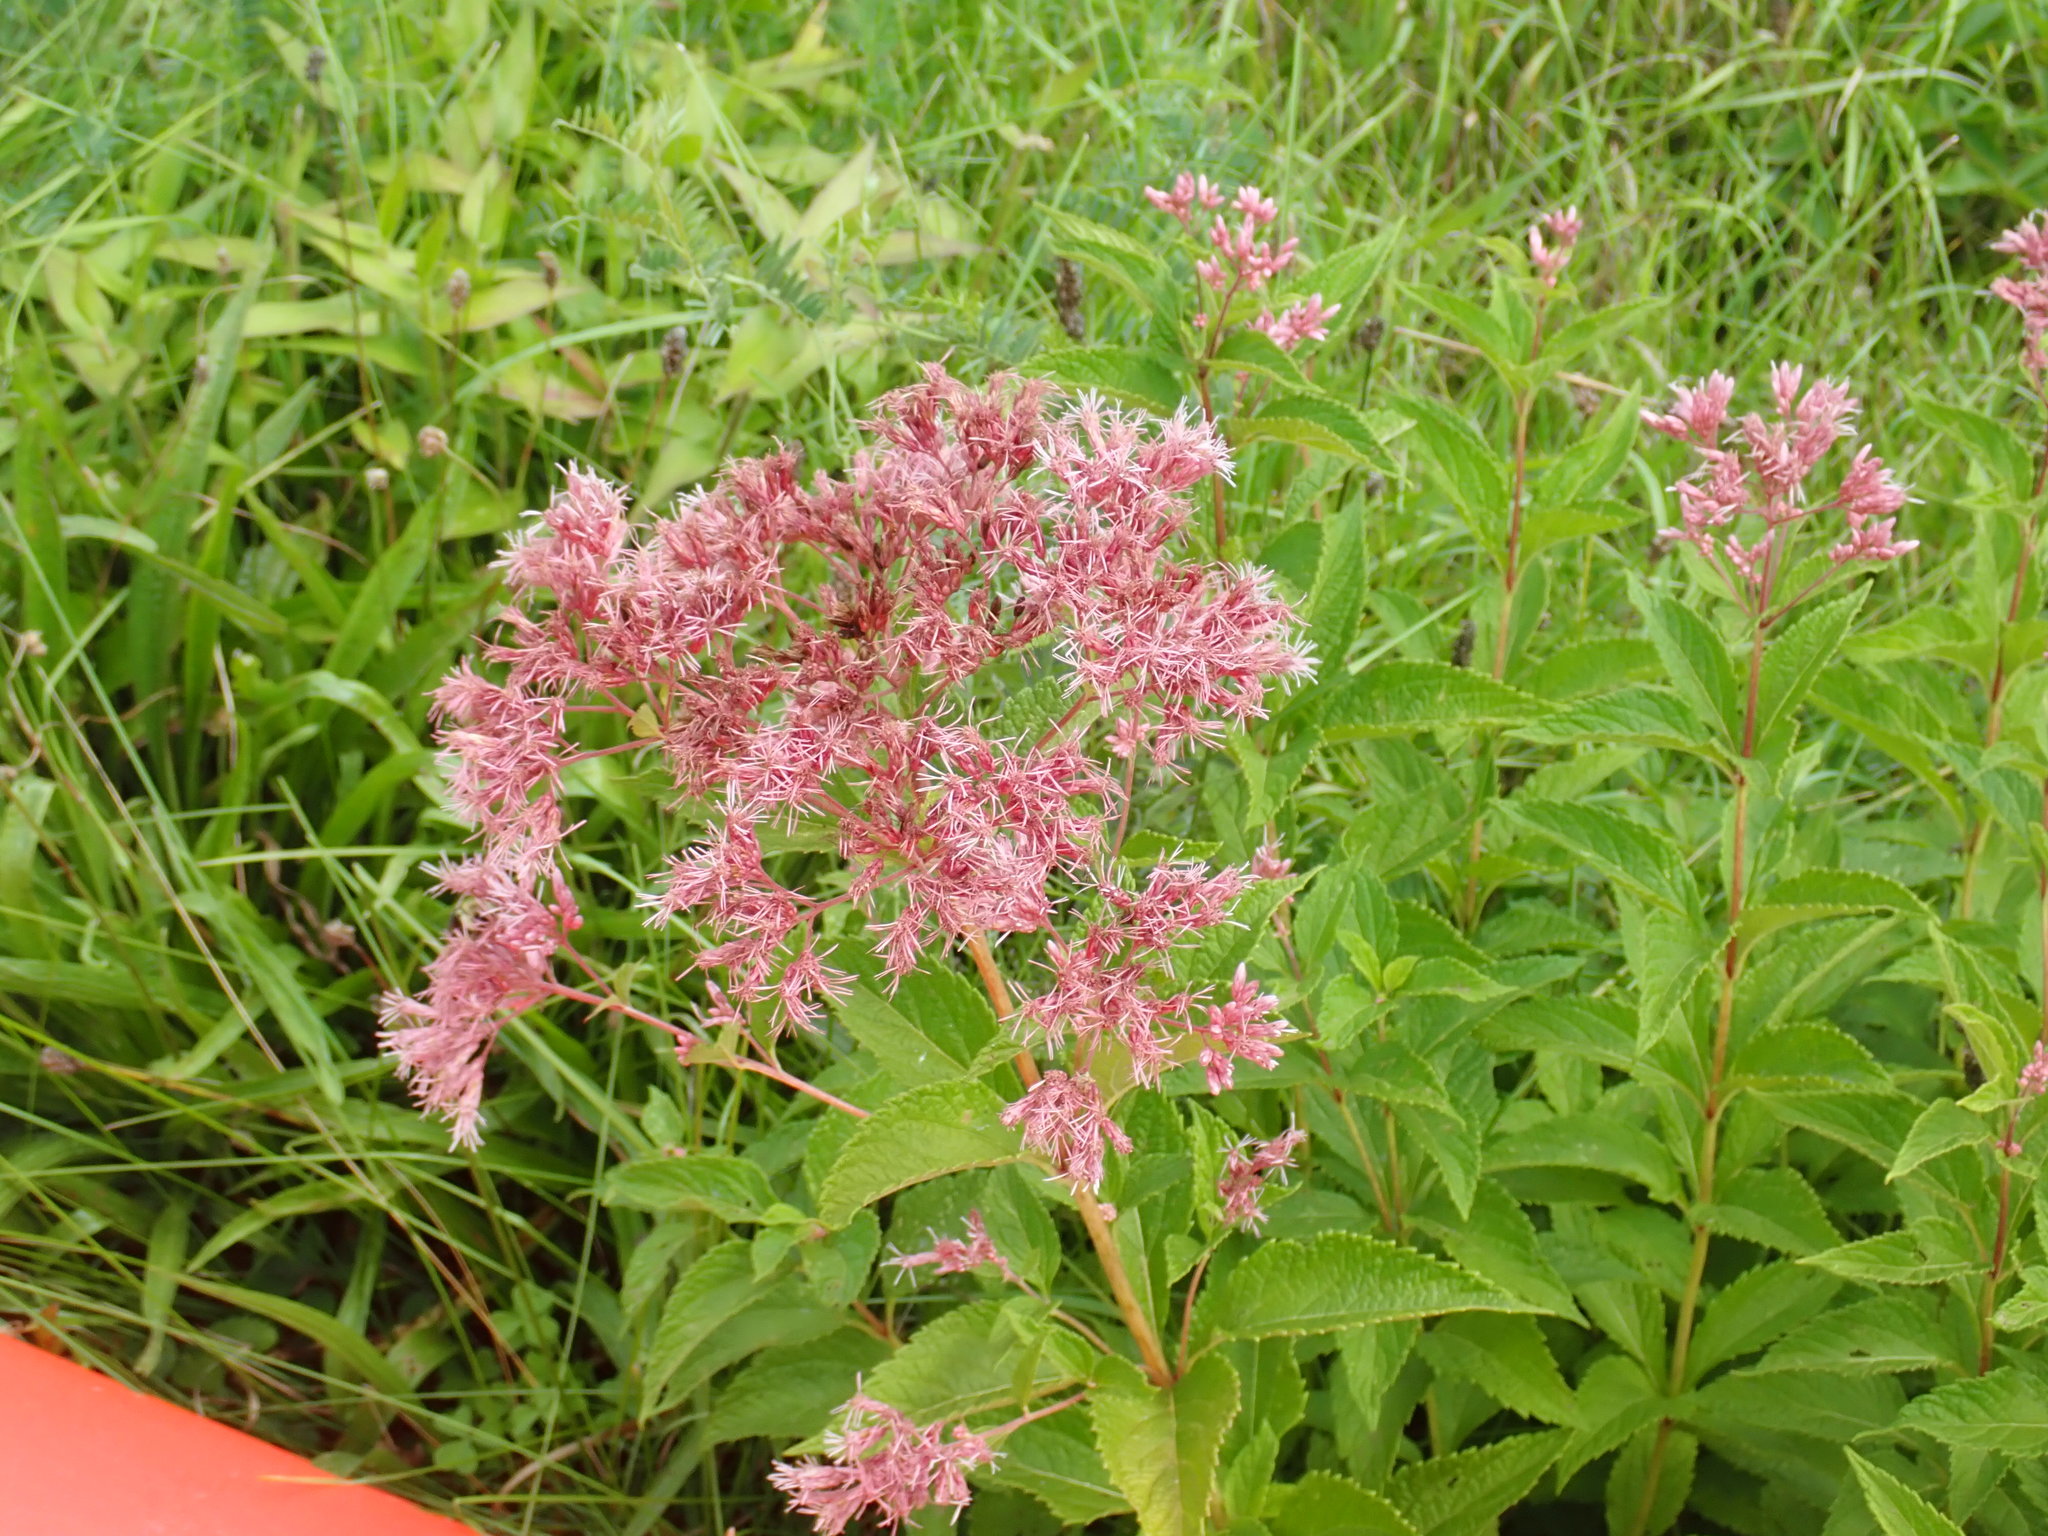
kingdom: Plantae
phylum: Tracheophyta
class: Magnoliopsida
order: Asterales
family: Asteraceae
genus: Eutrochium
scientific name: Eutrochium
